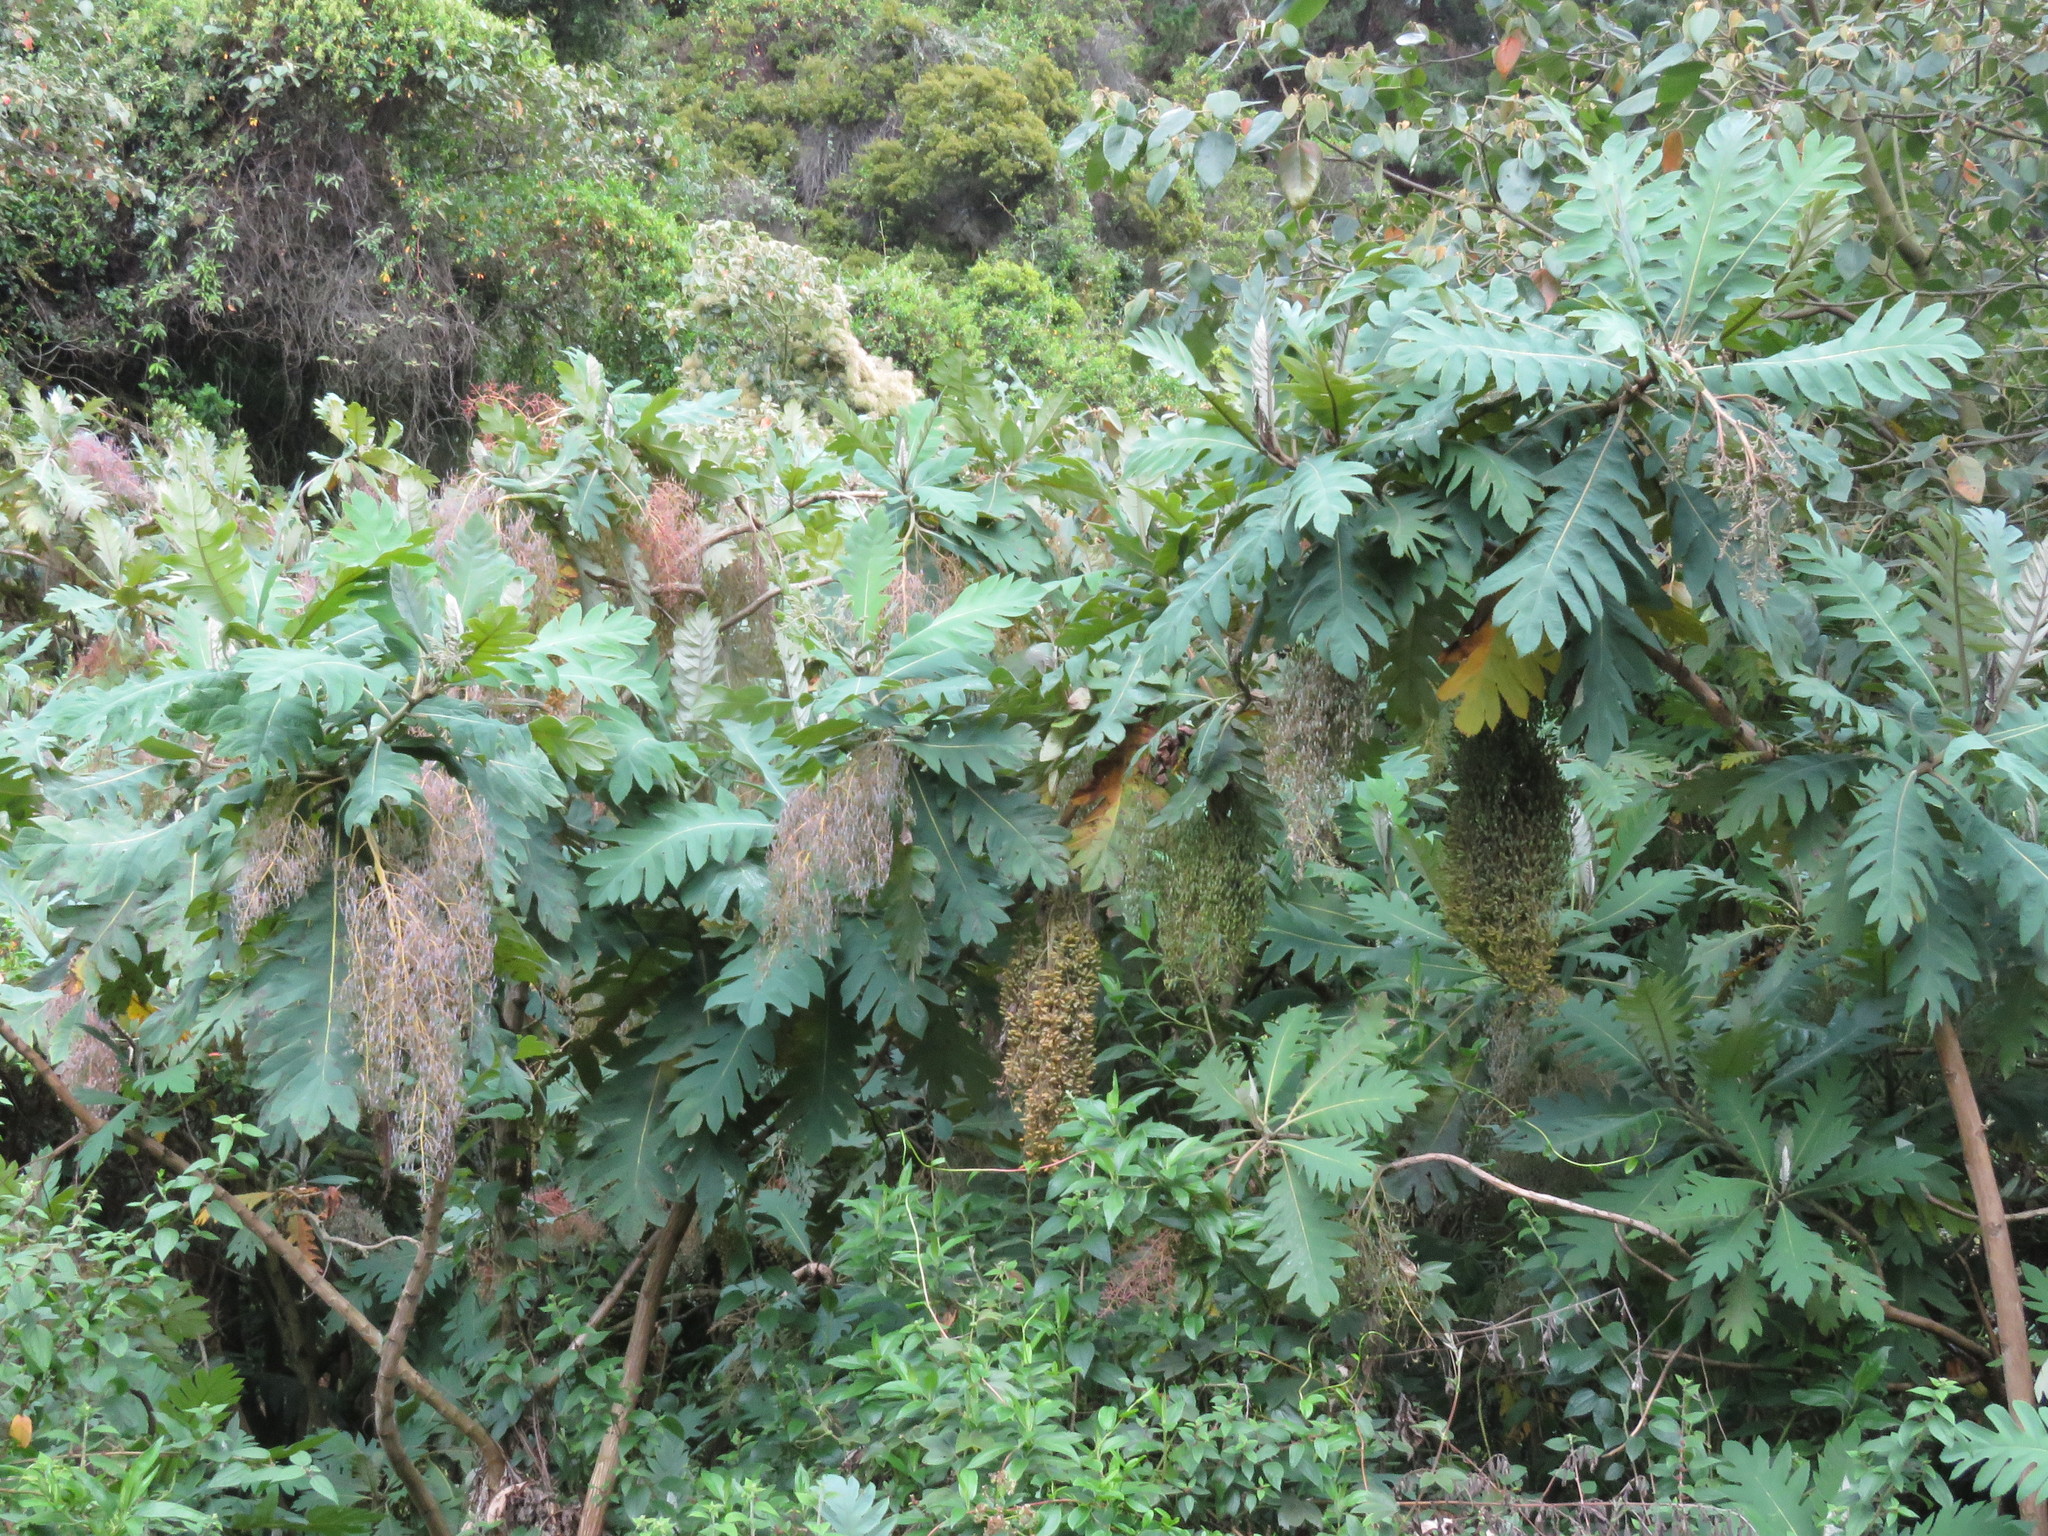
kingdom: Plantae
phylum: Tracheophyta
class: Magnoliopsida
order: Ranunculales
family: Papaveraceae
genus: Bocconia
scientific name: Bocconia frutescens
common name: Tree poppy
